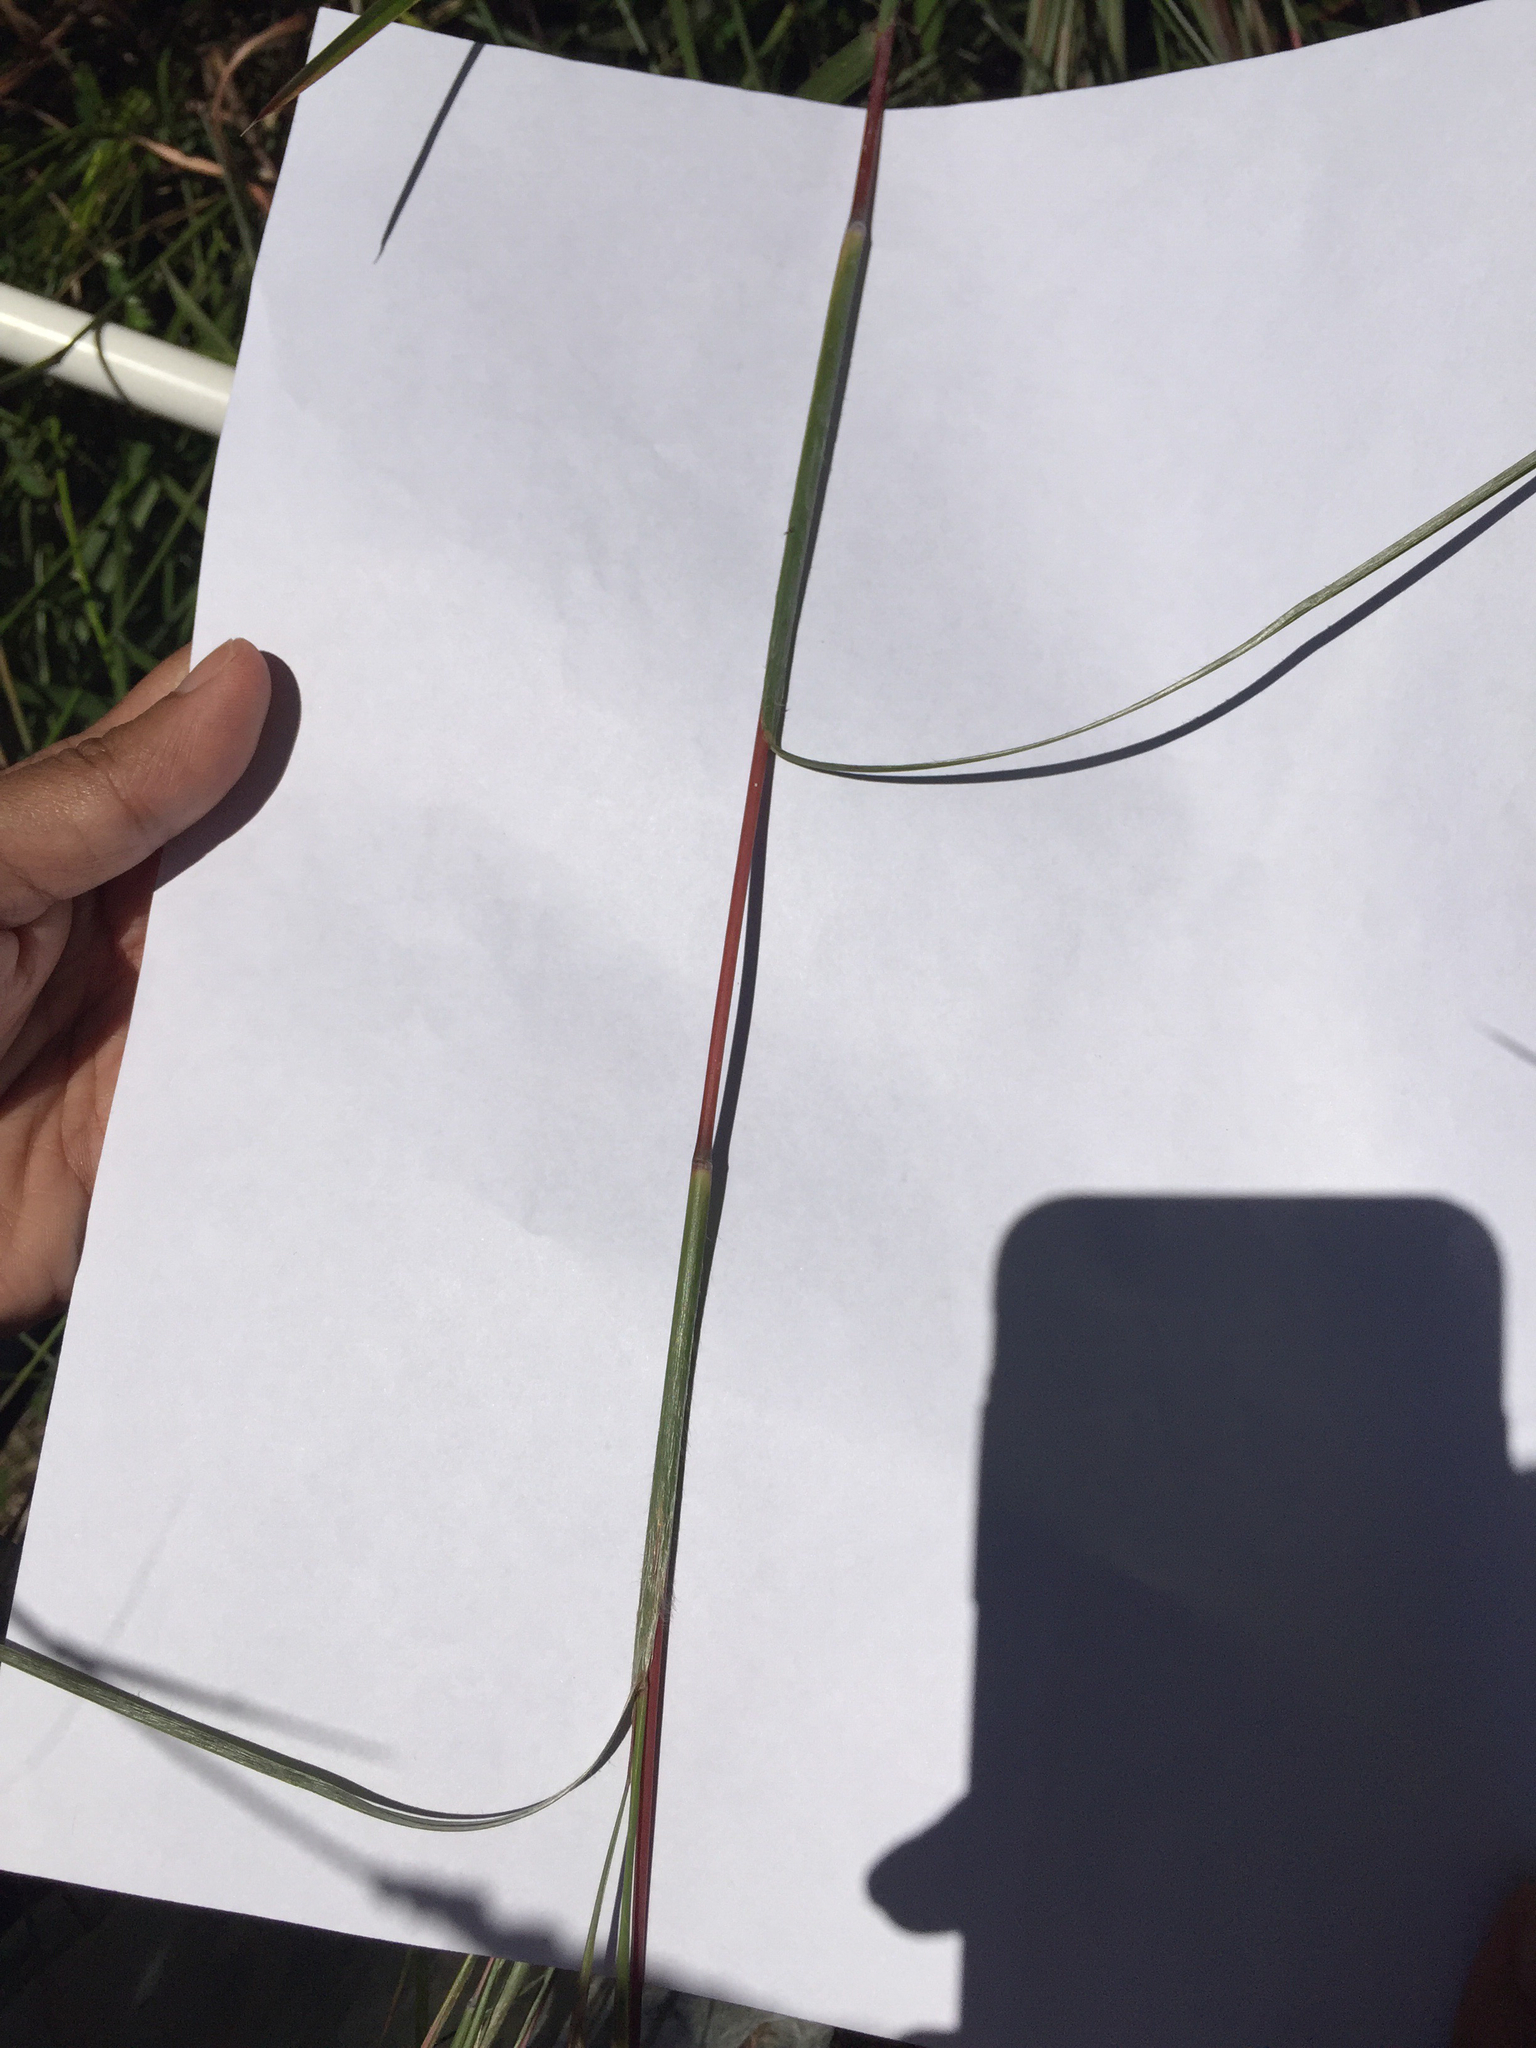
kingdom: Plantae
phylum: Tracheophyta
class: Liliopsida
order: Poales
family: Poaceae
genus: Schizachyrium
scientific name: Schizachyrium scoparium
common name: Little bluestem
